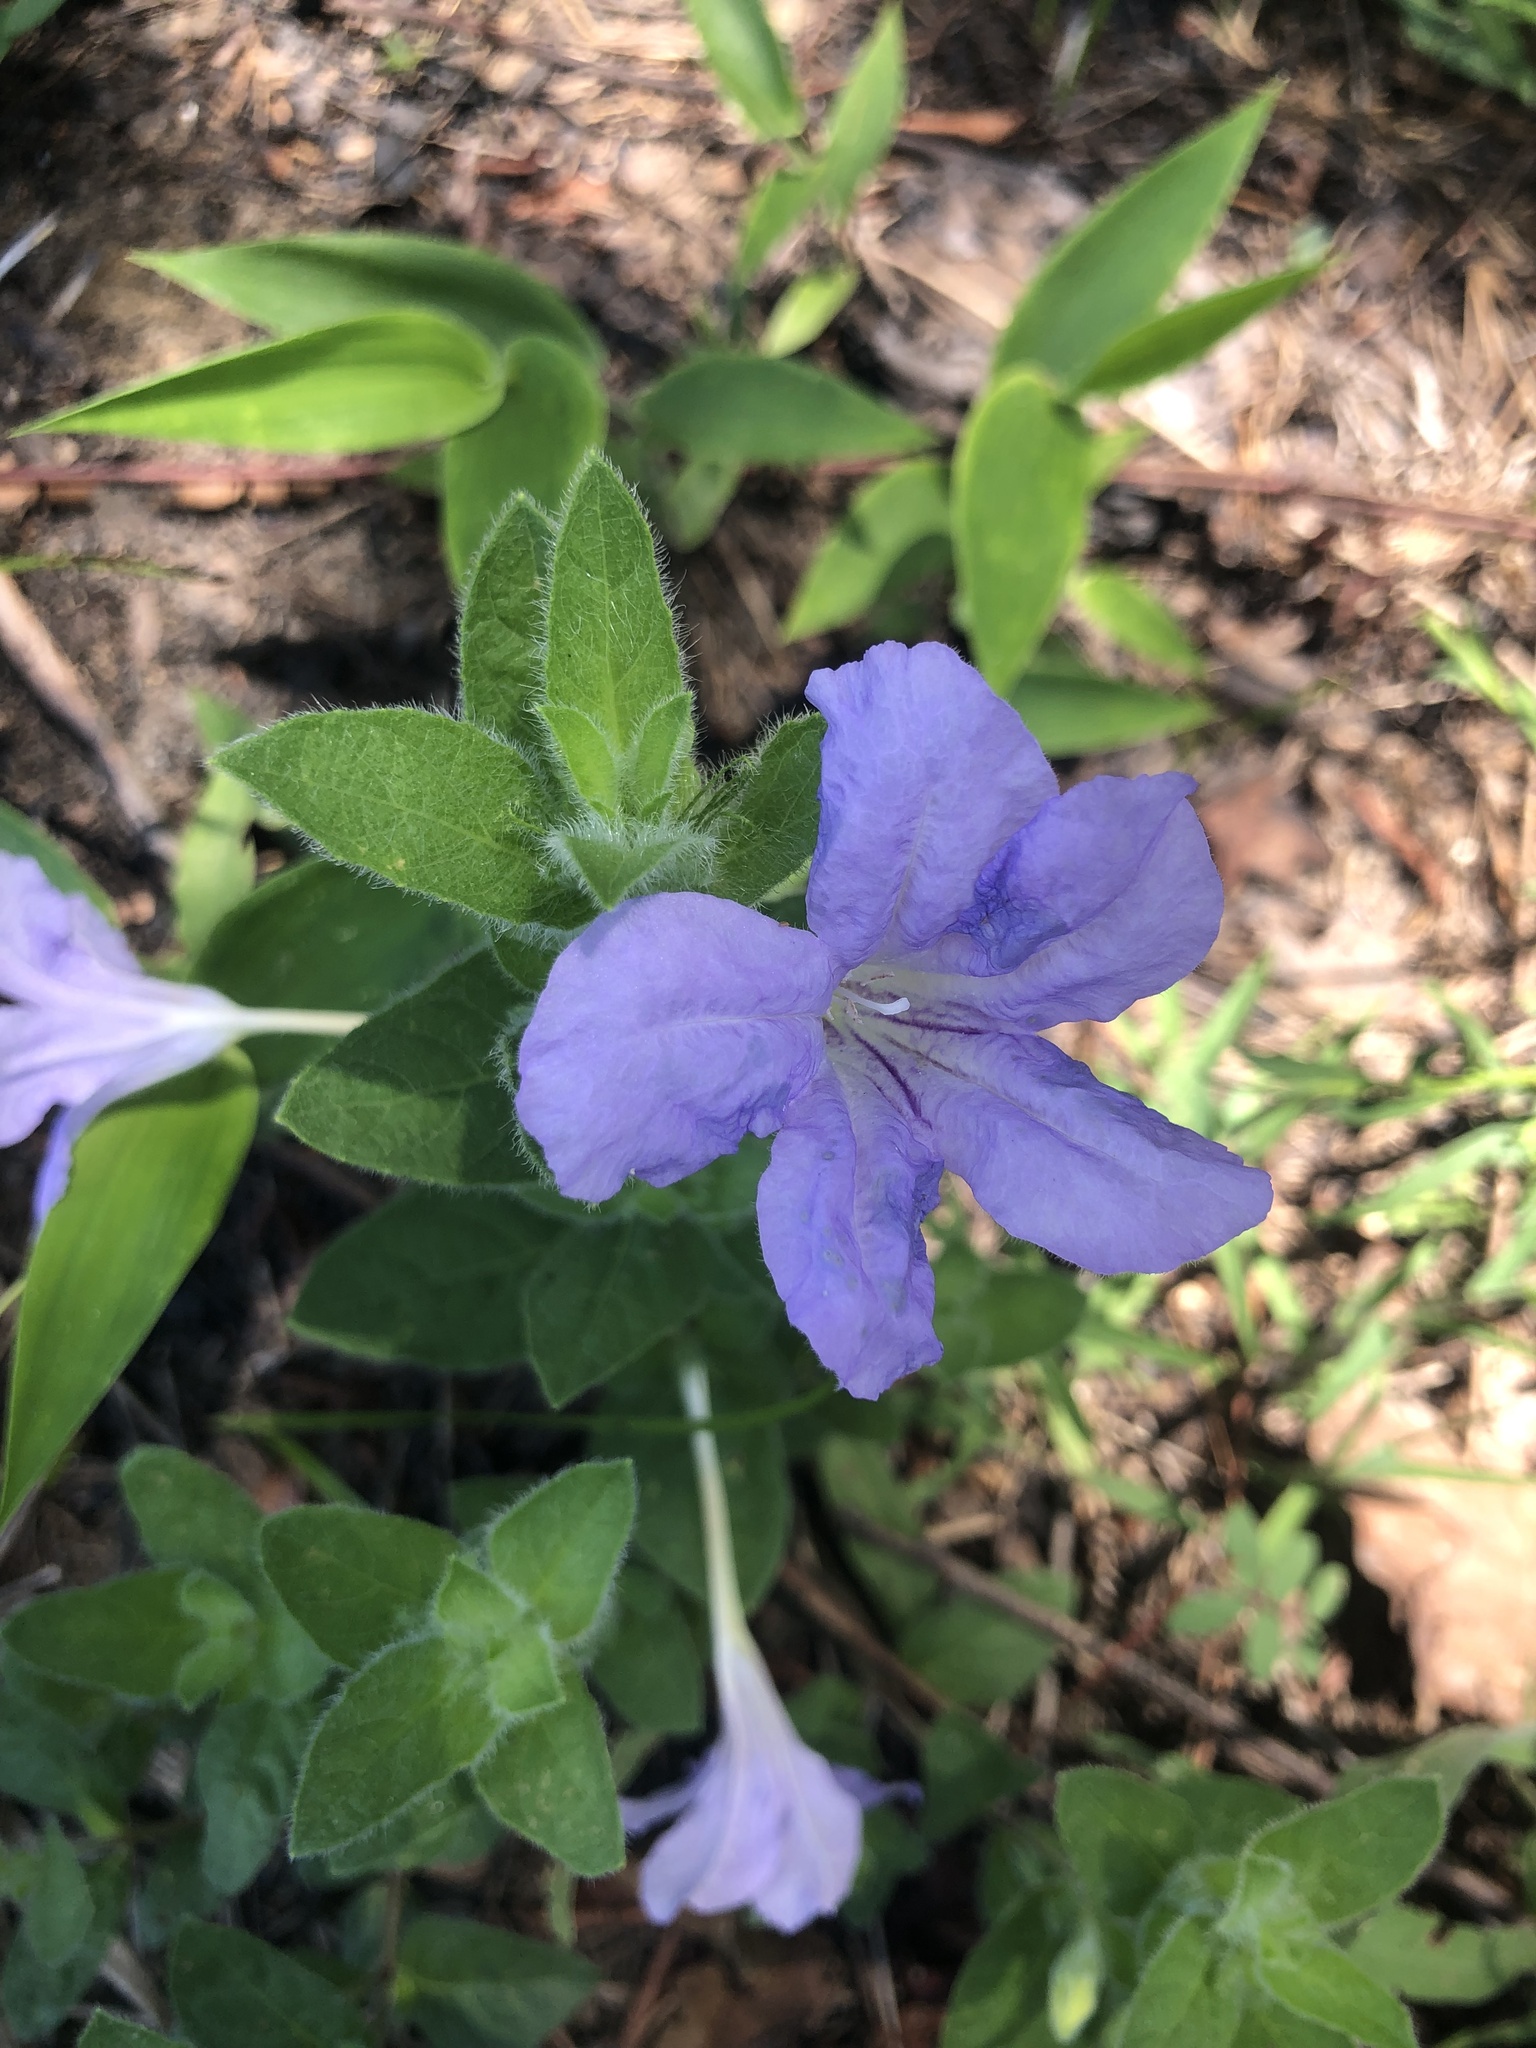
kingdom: Plantae
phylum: Tracheophyta
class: Magnoliopsida
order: Lamiales
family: Acanthaceae
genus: Ruellia
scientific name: Ruellia humilis
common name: Fringe-leaf ruellia
